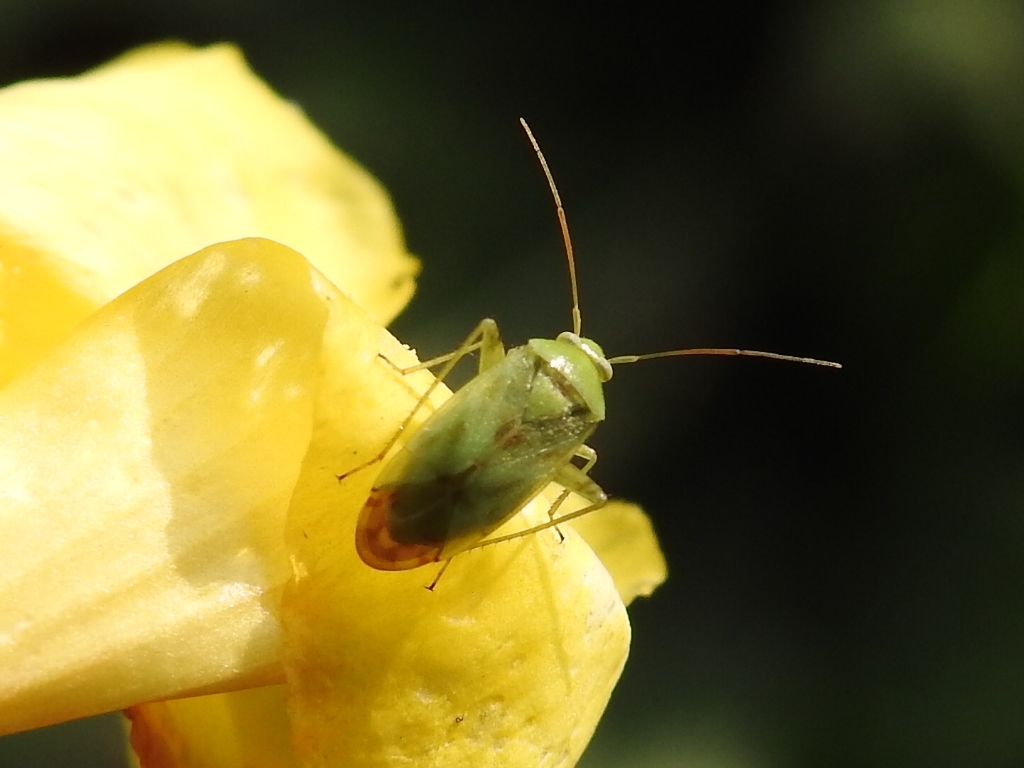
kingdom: Animalia
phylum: Arthropoda
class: Insecta
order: Hemiptera
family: Miridae
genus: Taylorilygus
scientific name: Taylorilygus apicalis
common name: Plant bug
